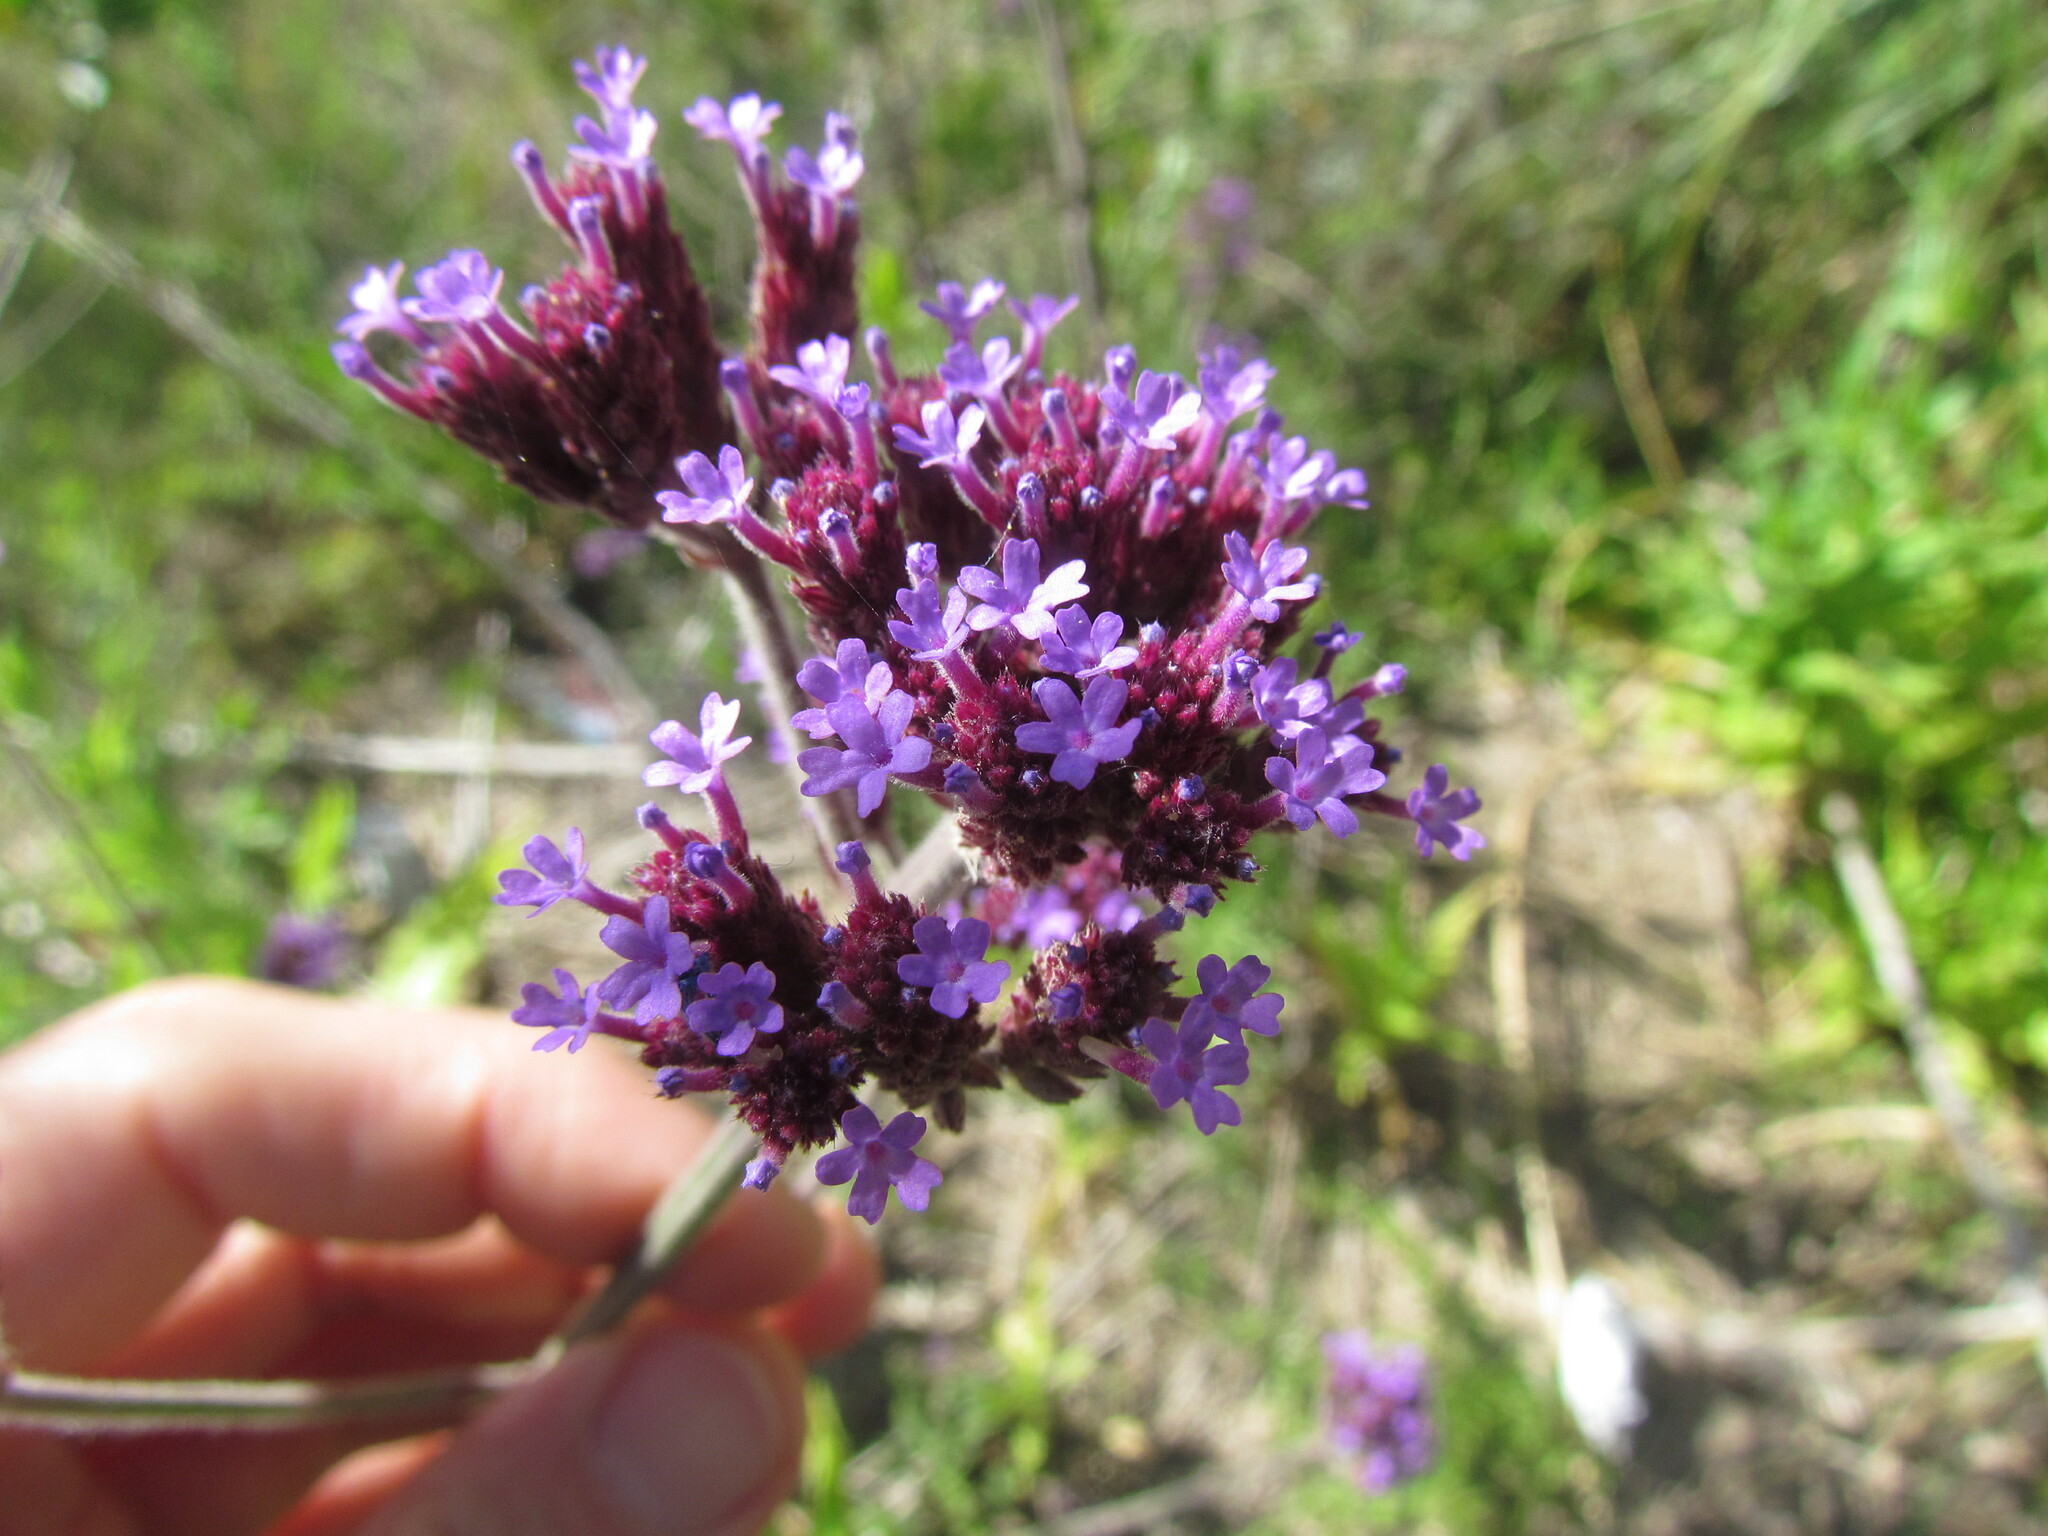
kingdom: Plantae
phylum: Tracheophyta
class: Magnoliopsida
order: Lamiales
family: Verbenaceae
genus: Verbena
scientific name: Verbena bonariensis
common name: Purpletop vervain
